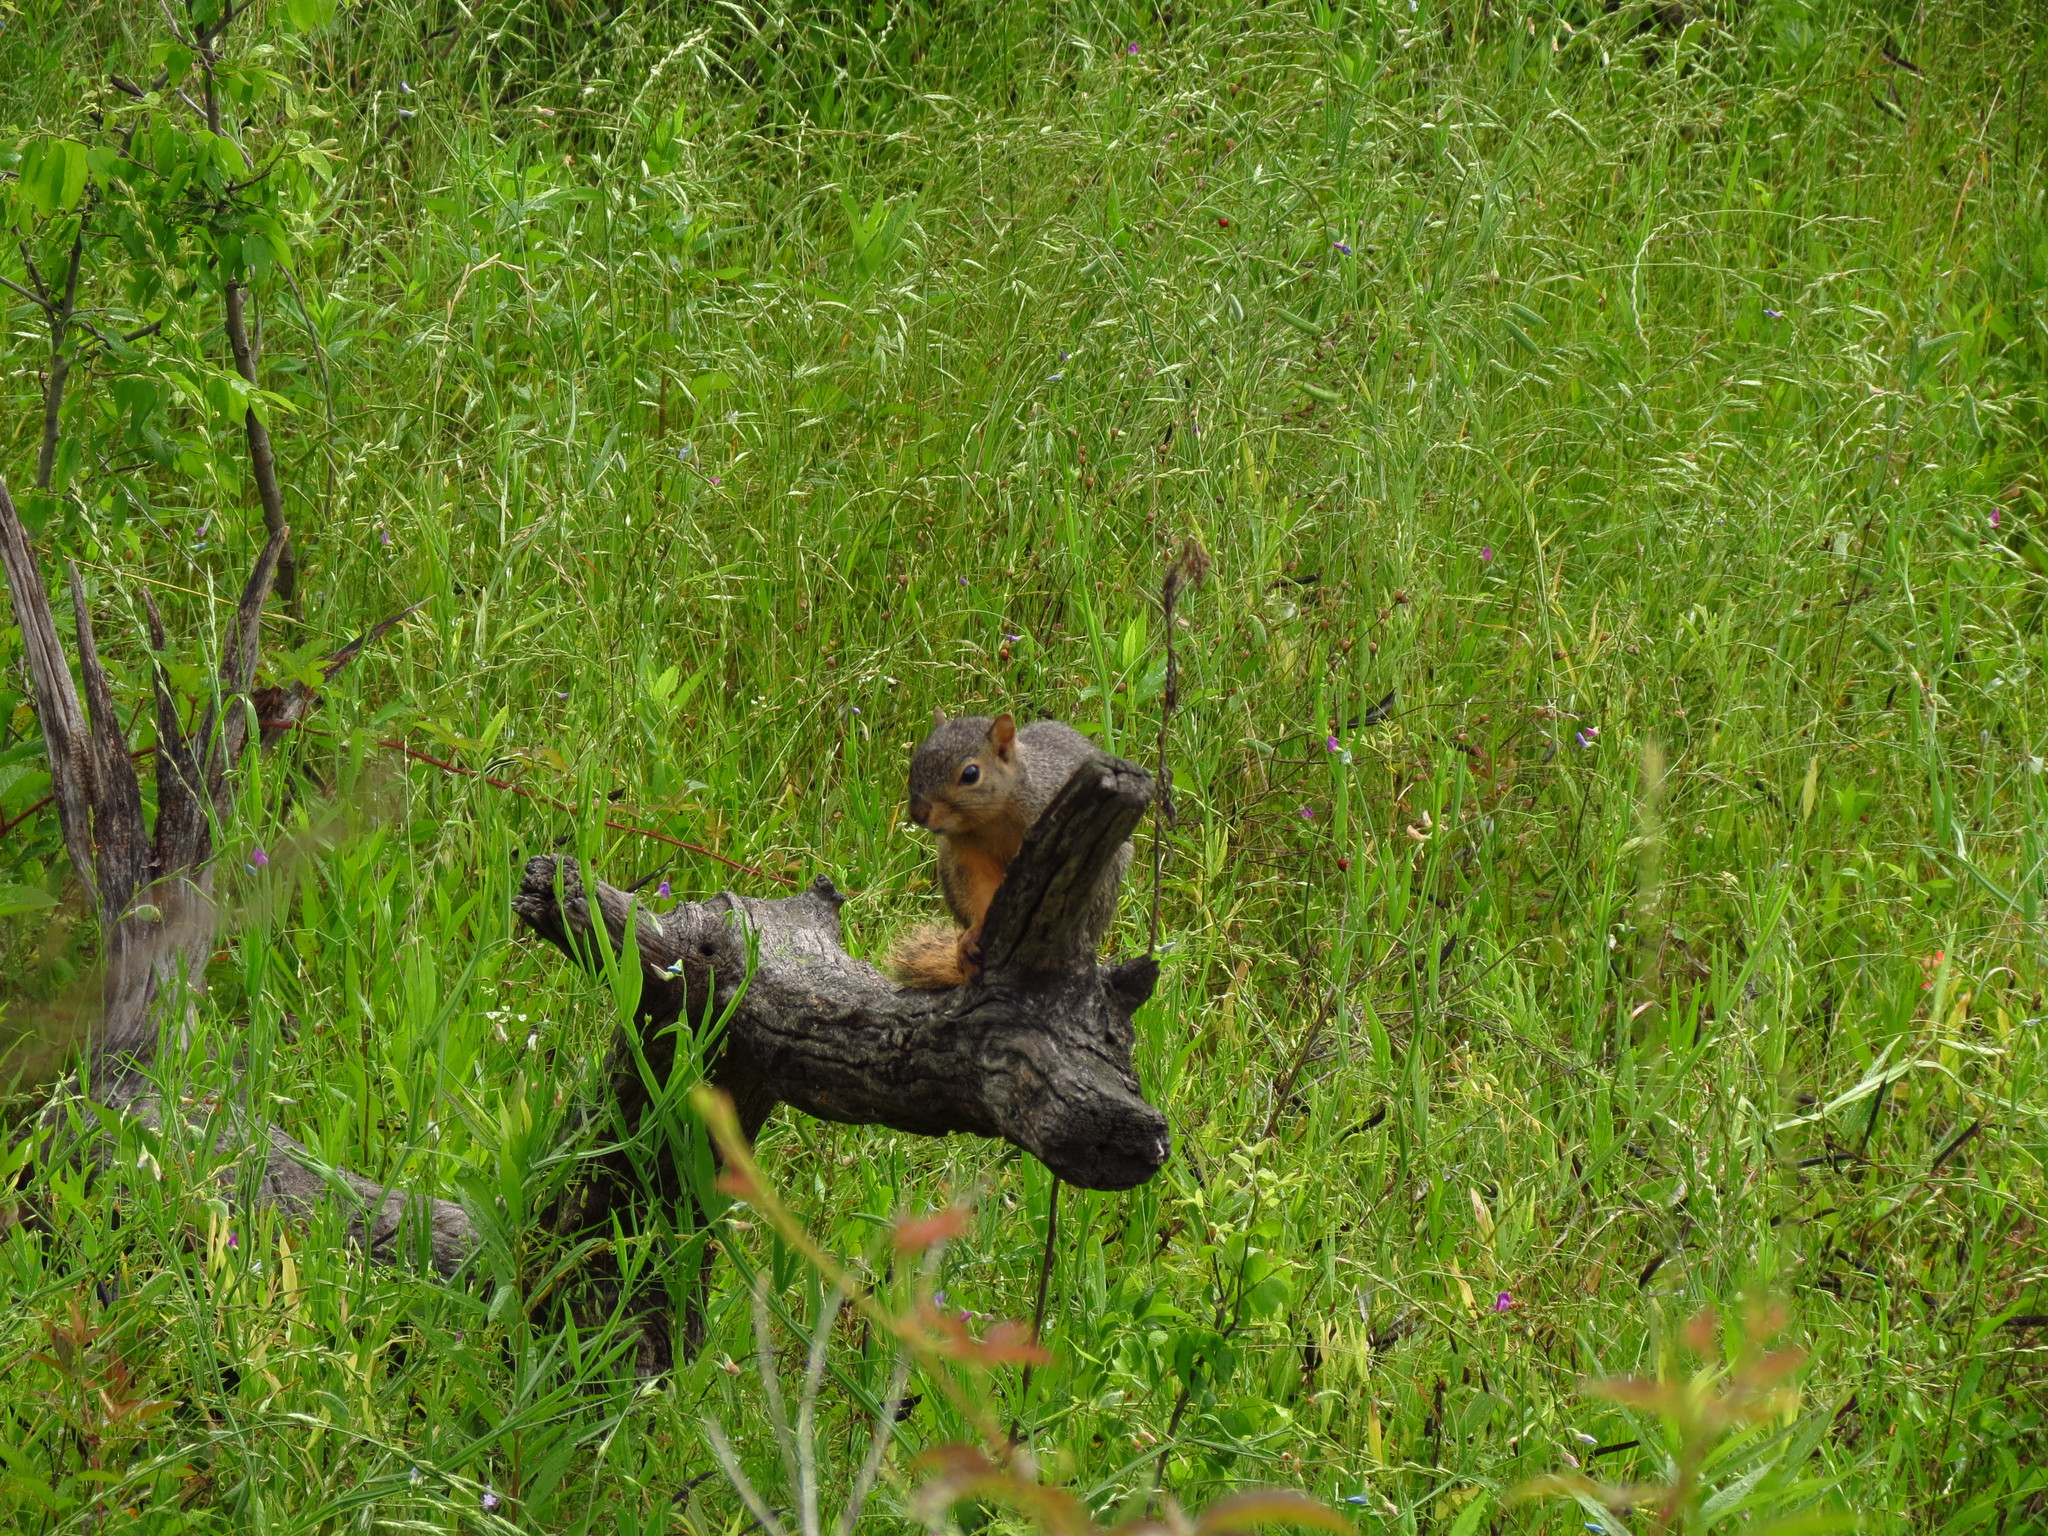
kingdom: Animalia
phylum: Chordata
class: Mammalia
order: Rodentia
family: Sciuridae
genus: Sciurus
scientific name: Sciurus niger
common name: Fox squirrel
